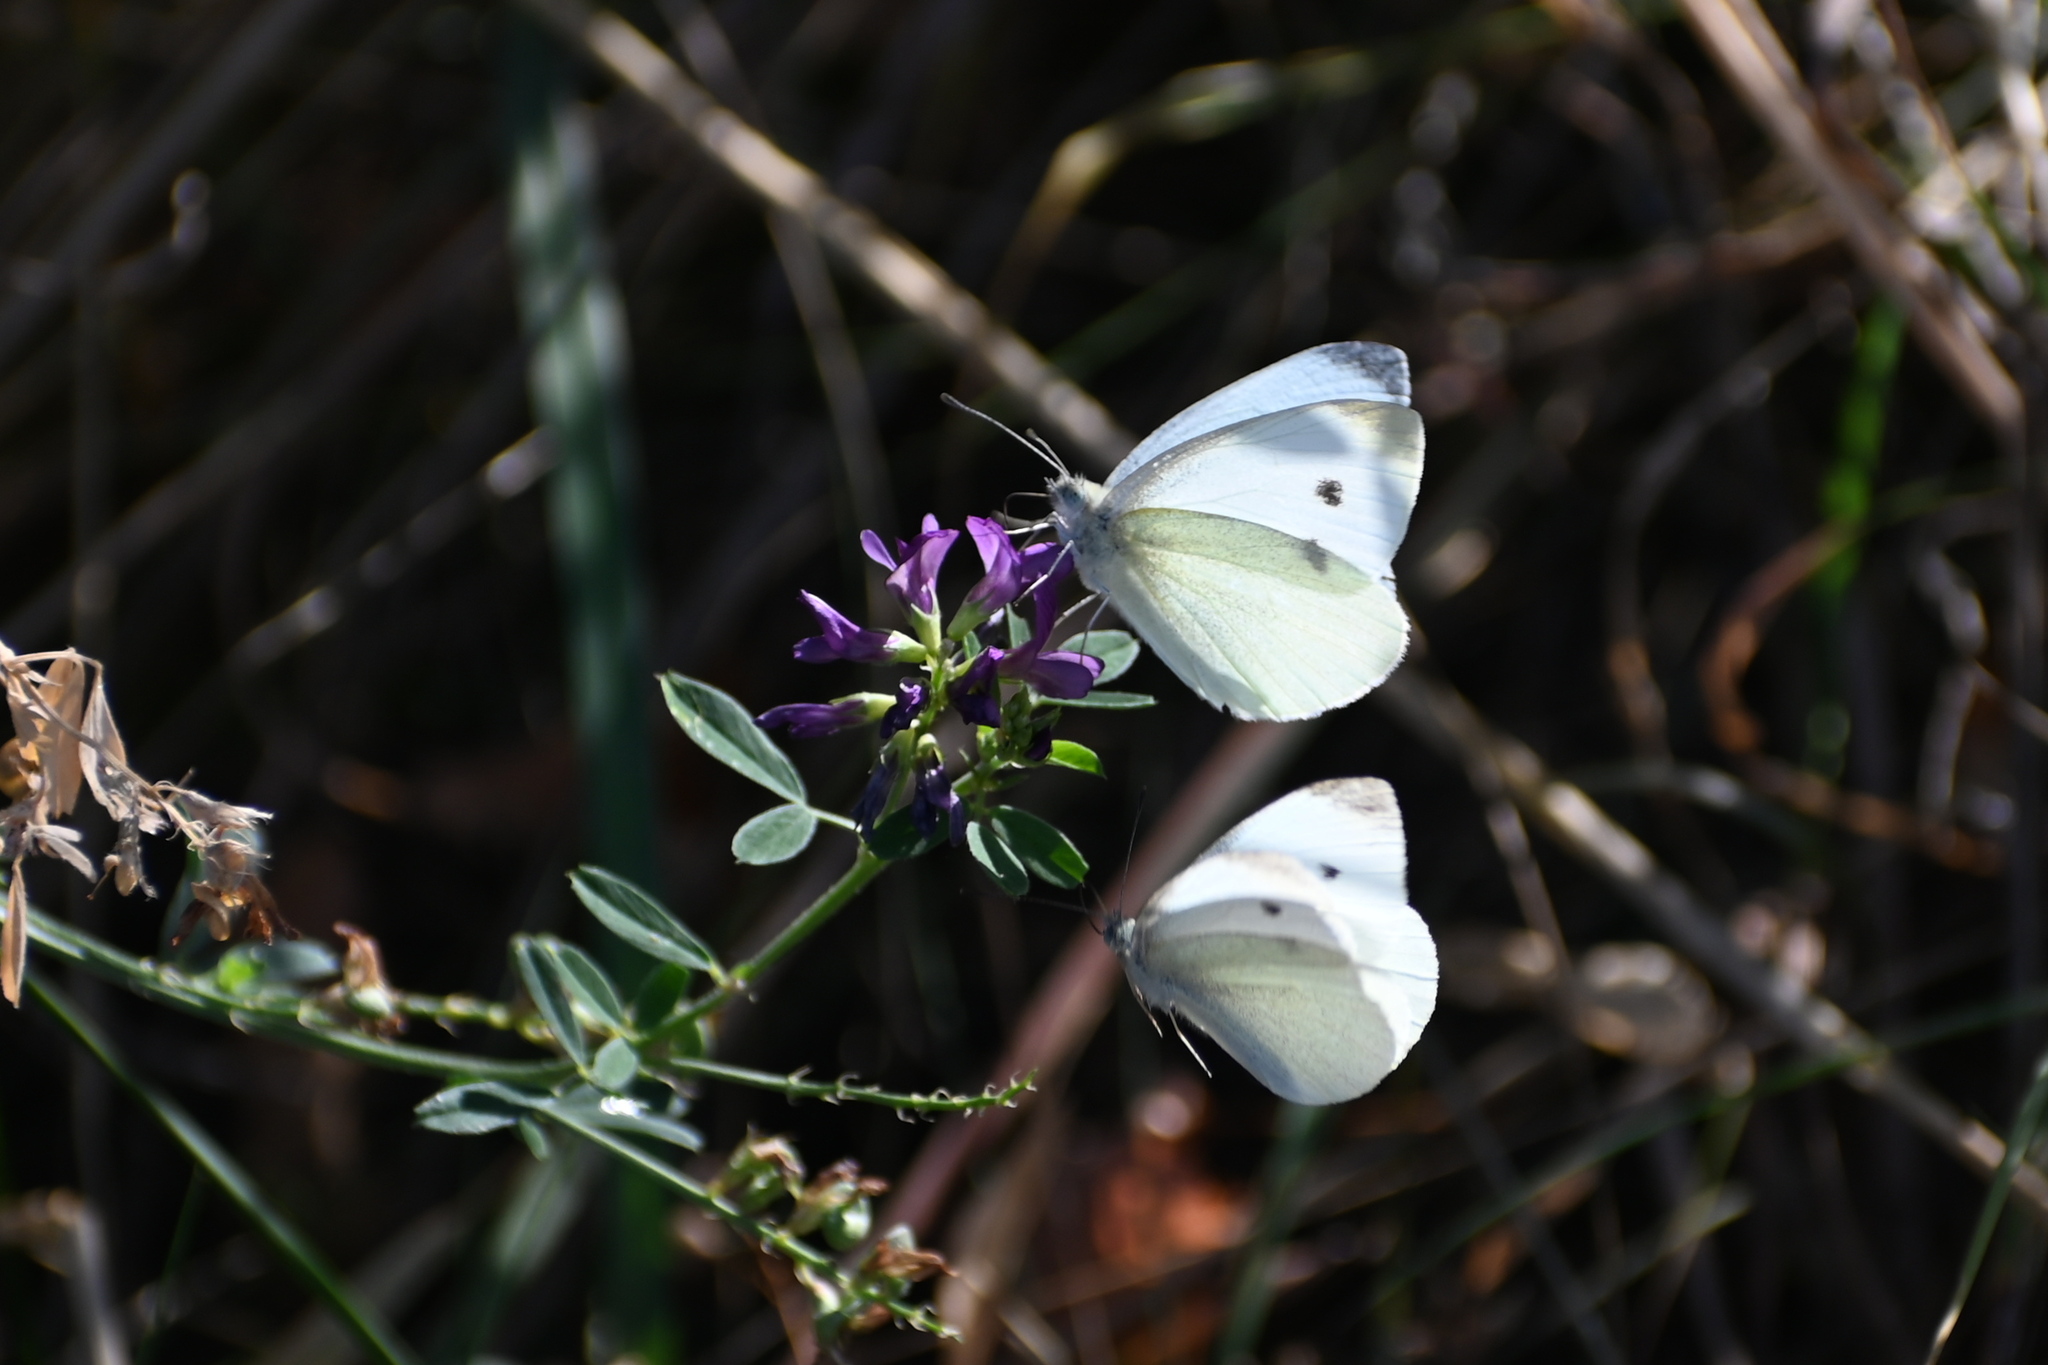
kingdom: Animalia
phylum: Arthropoda
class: Insecta
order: Lepidoptera
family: Pieridae
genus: Pieris
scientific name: Pieris rapae
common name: Small white
